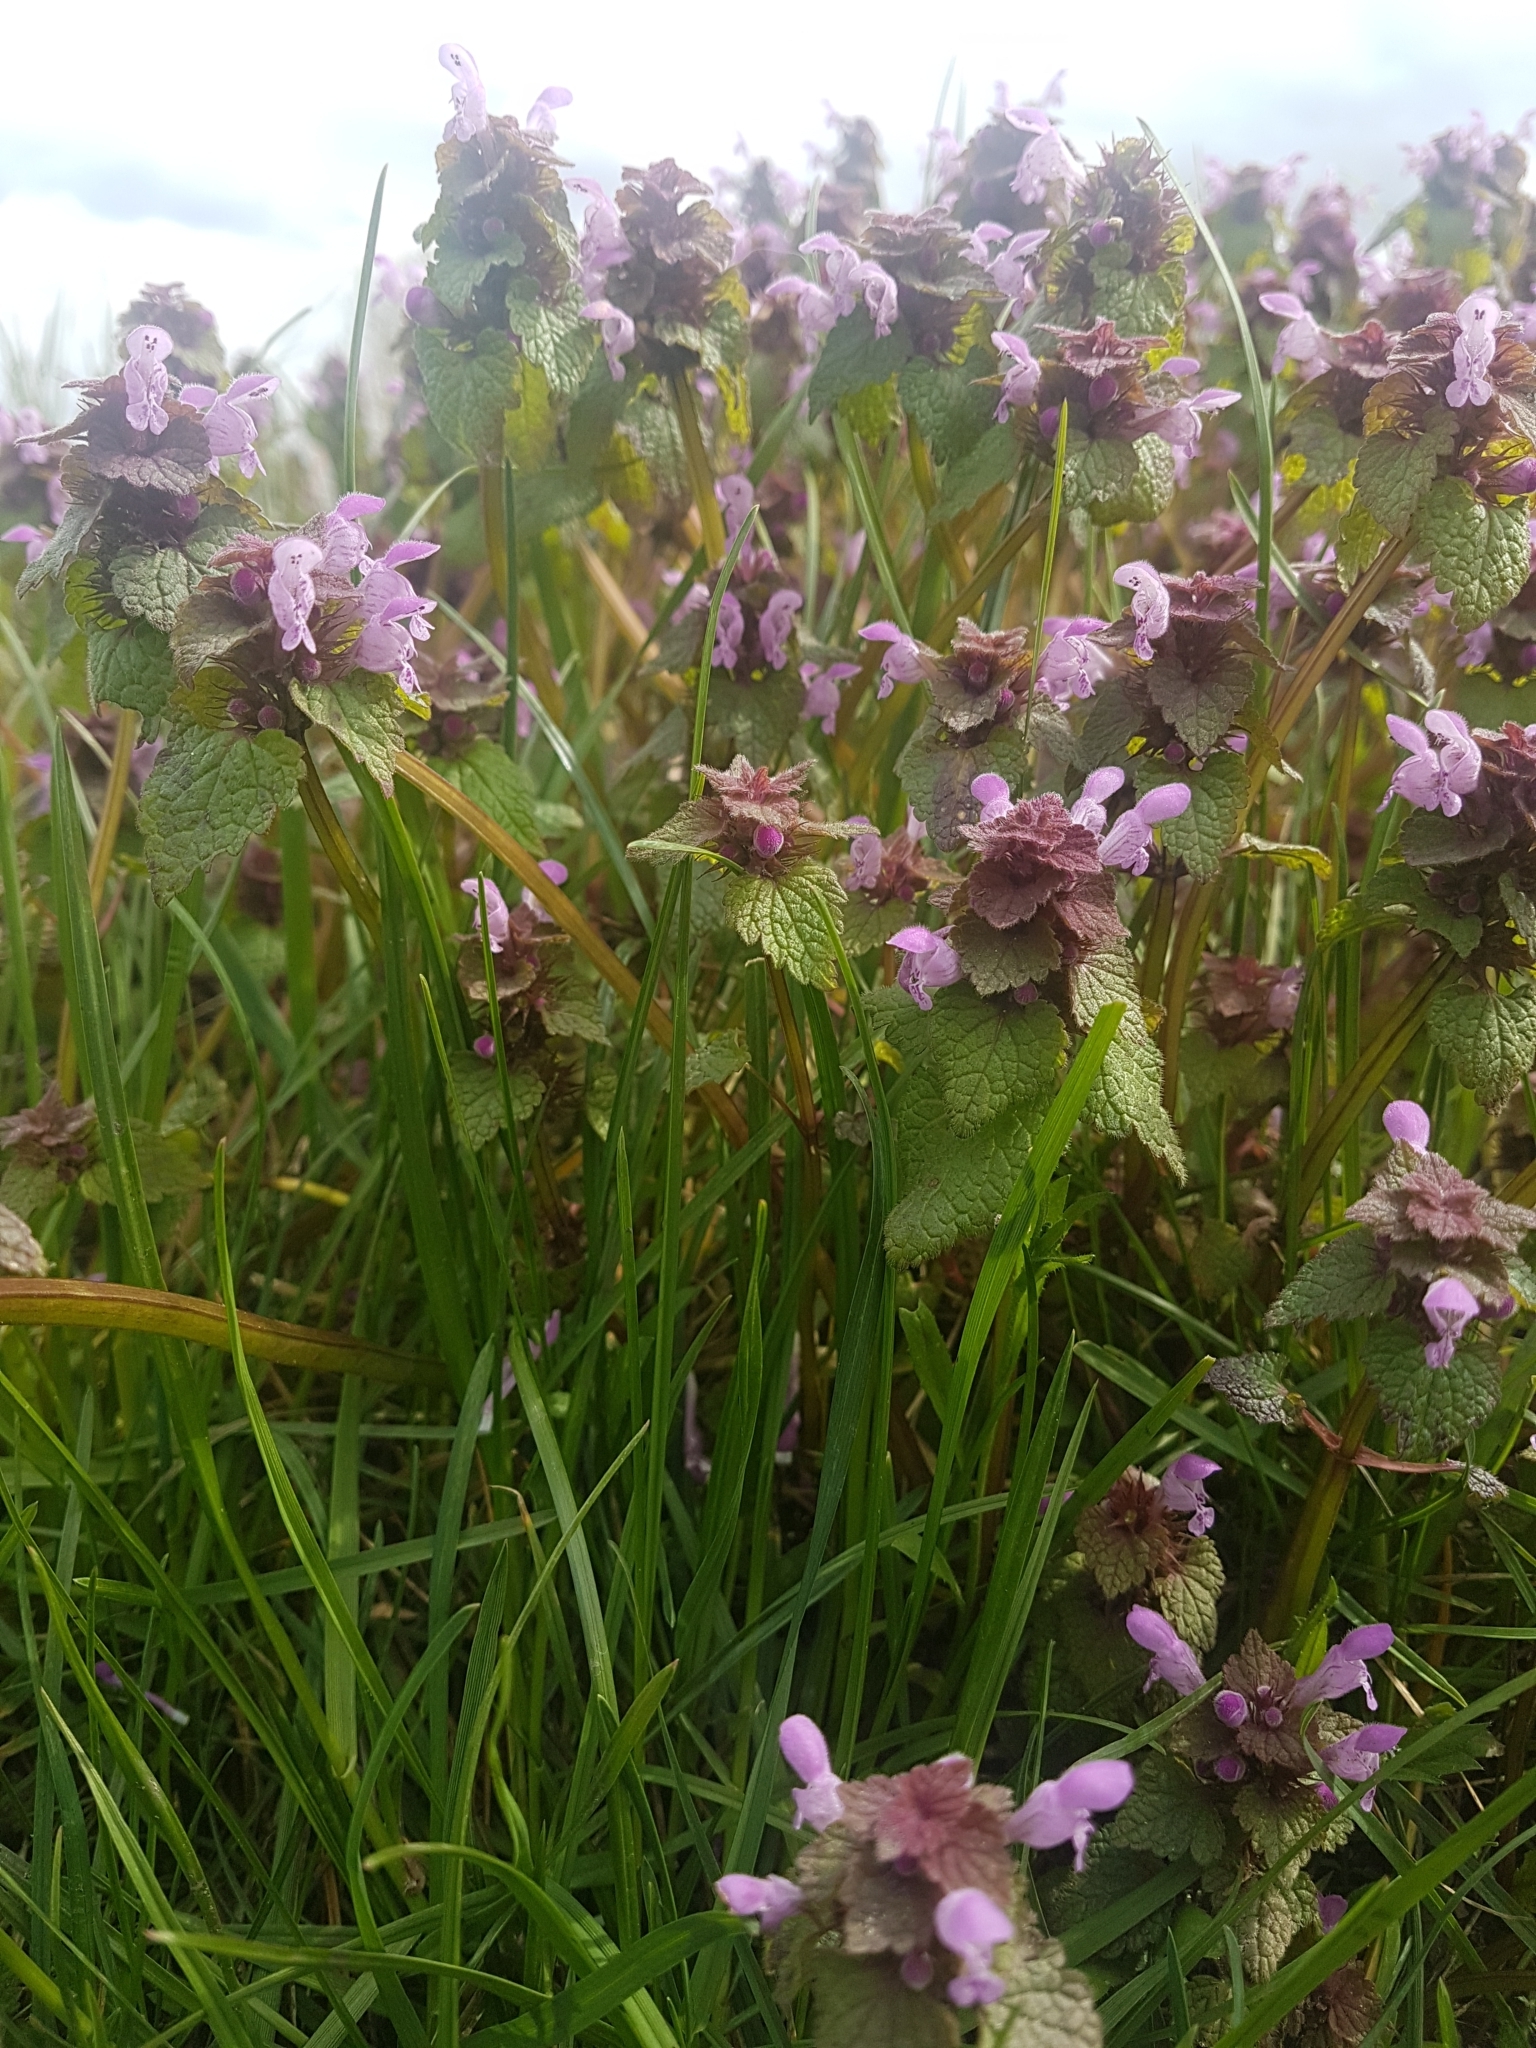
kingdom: Plantae
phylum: Tracheophyta
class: Magnoliopsida
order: Lamiales
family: Lamiaceae
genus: Lamium
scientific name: Lamium purpureum
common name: Red dead-nettle
